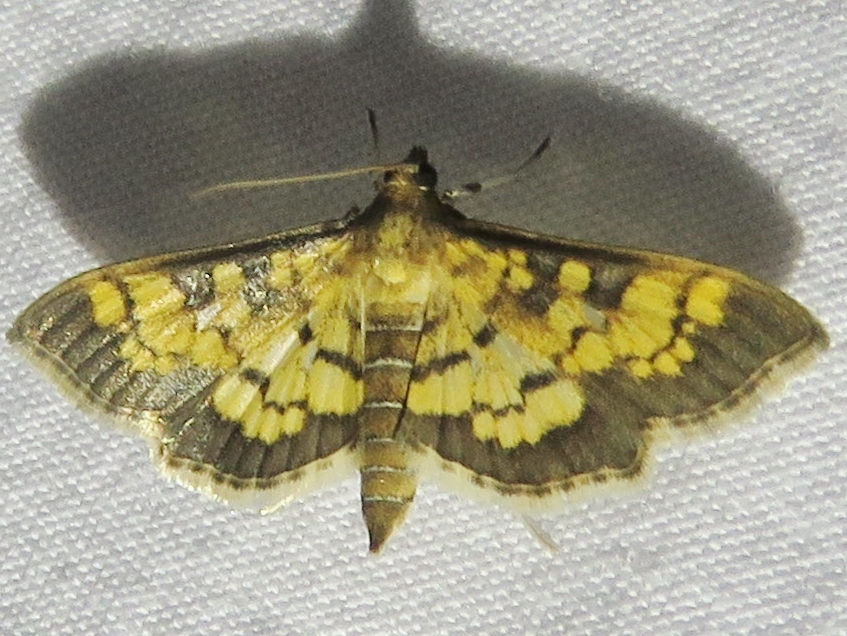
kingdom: Animalia
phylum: Arthropoda
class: Insecta
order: Lepidoptera
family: Crambidae
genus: Epipagis
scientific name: Epipagis adipaloides
